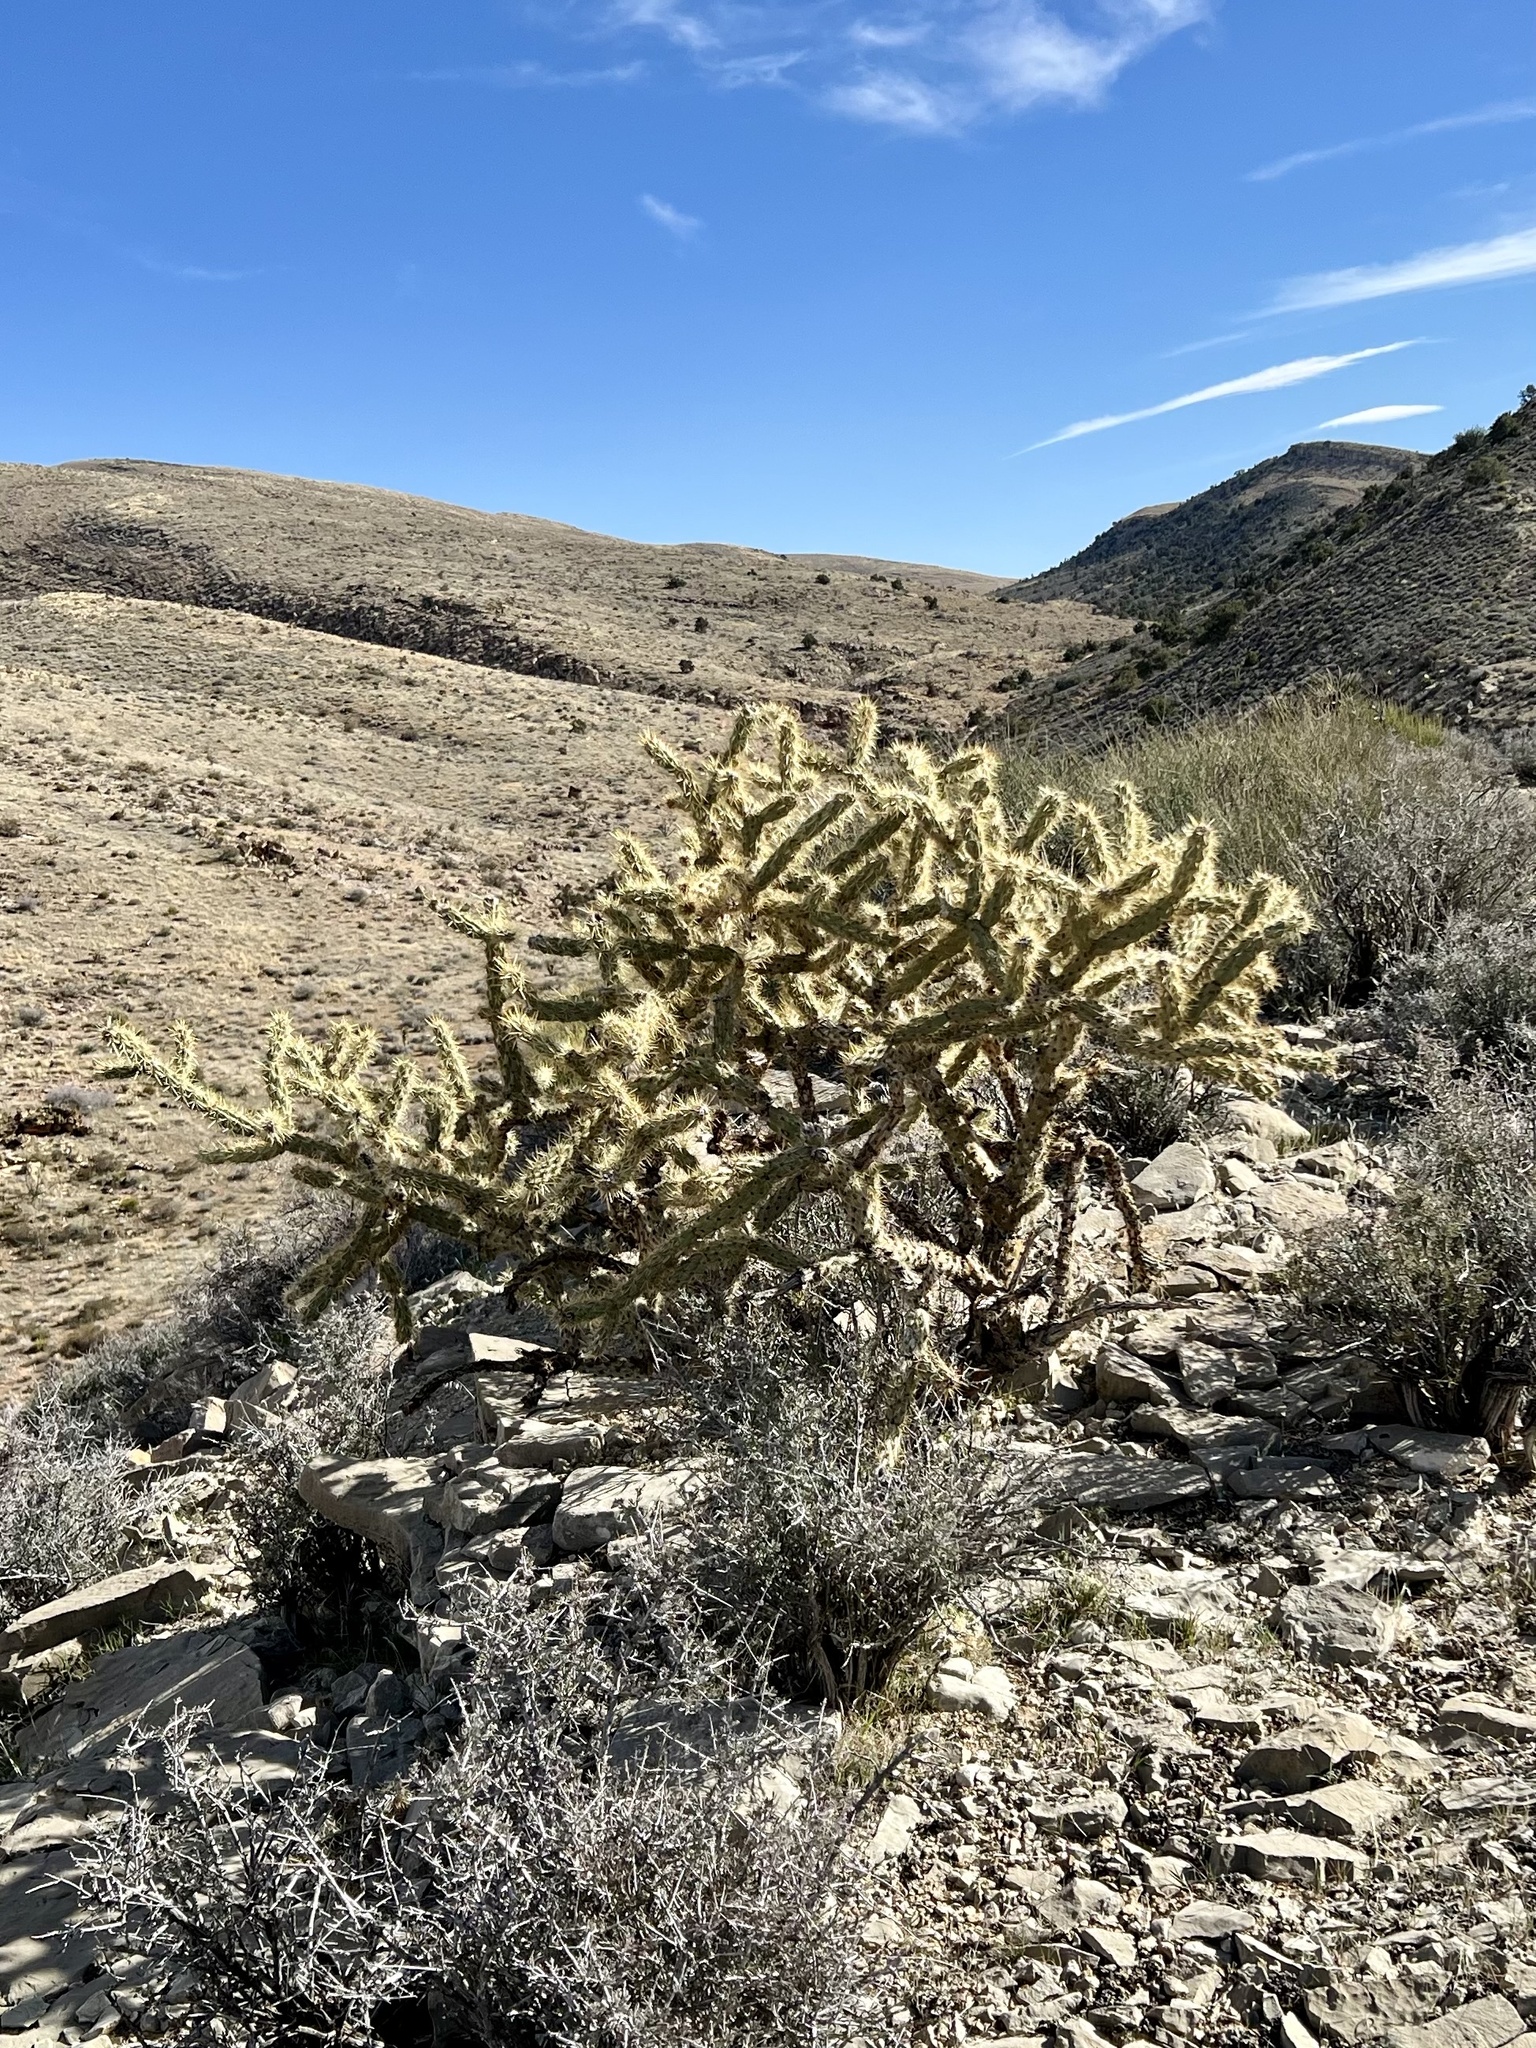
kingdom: Plantae
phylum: Tracheophyta
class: Magnoliopsida
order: Caryophyllales
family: Cactaceae
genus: Cylindropuntia
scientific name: Cylindropuntia acanthocarpa
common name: Buckhorn cholla
